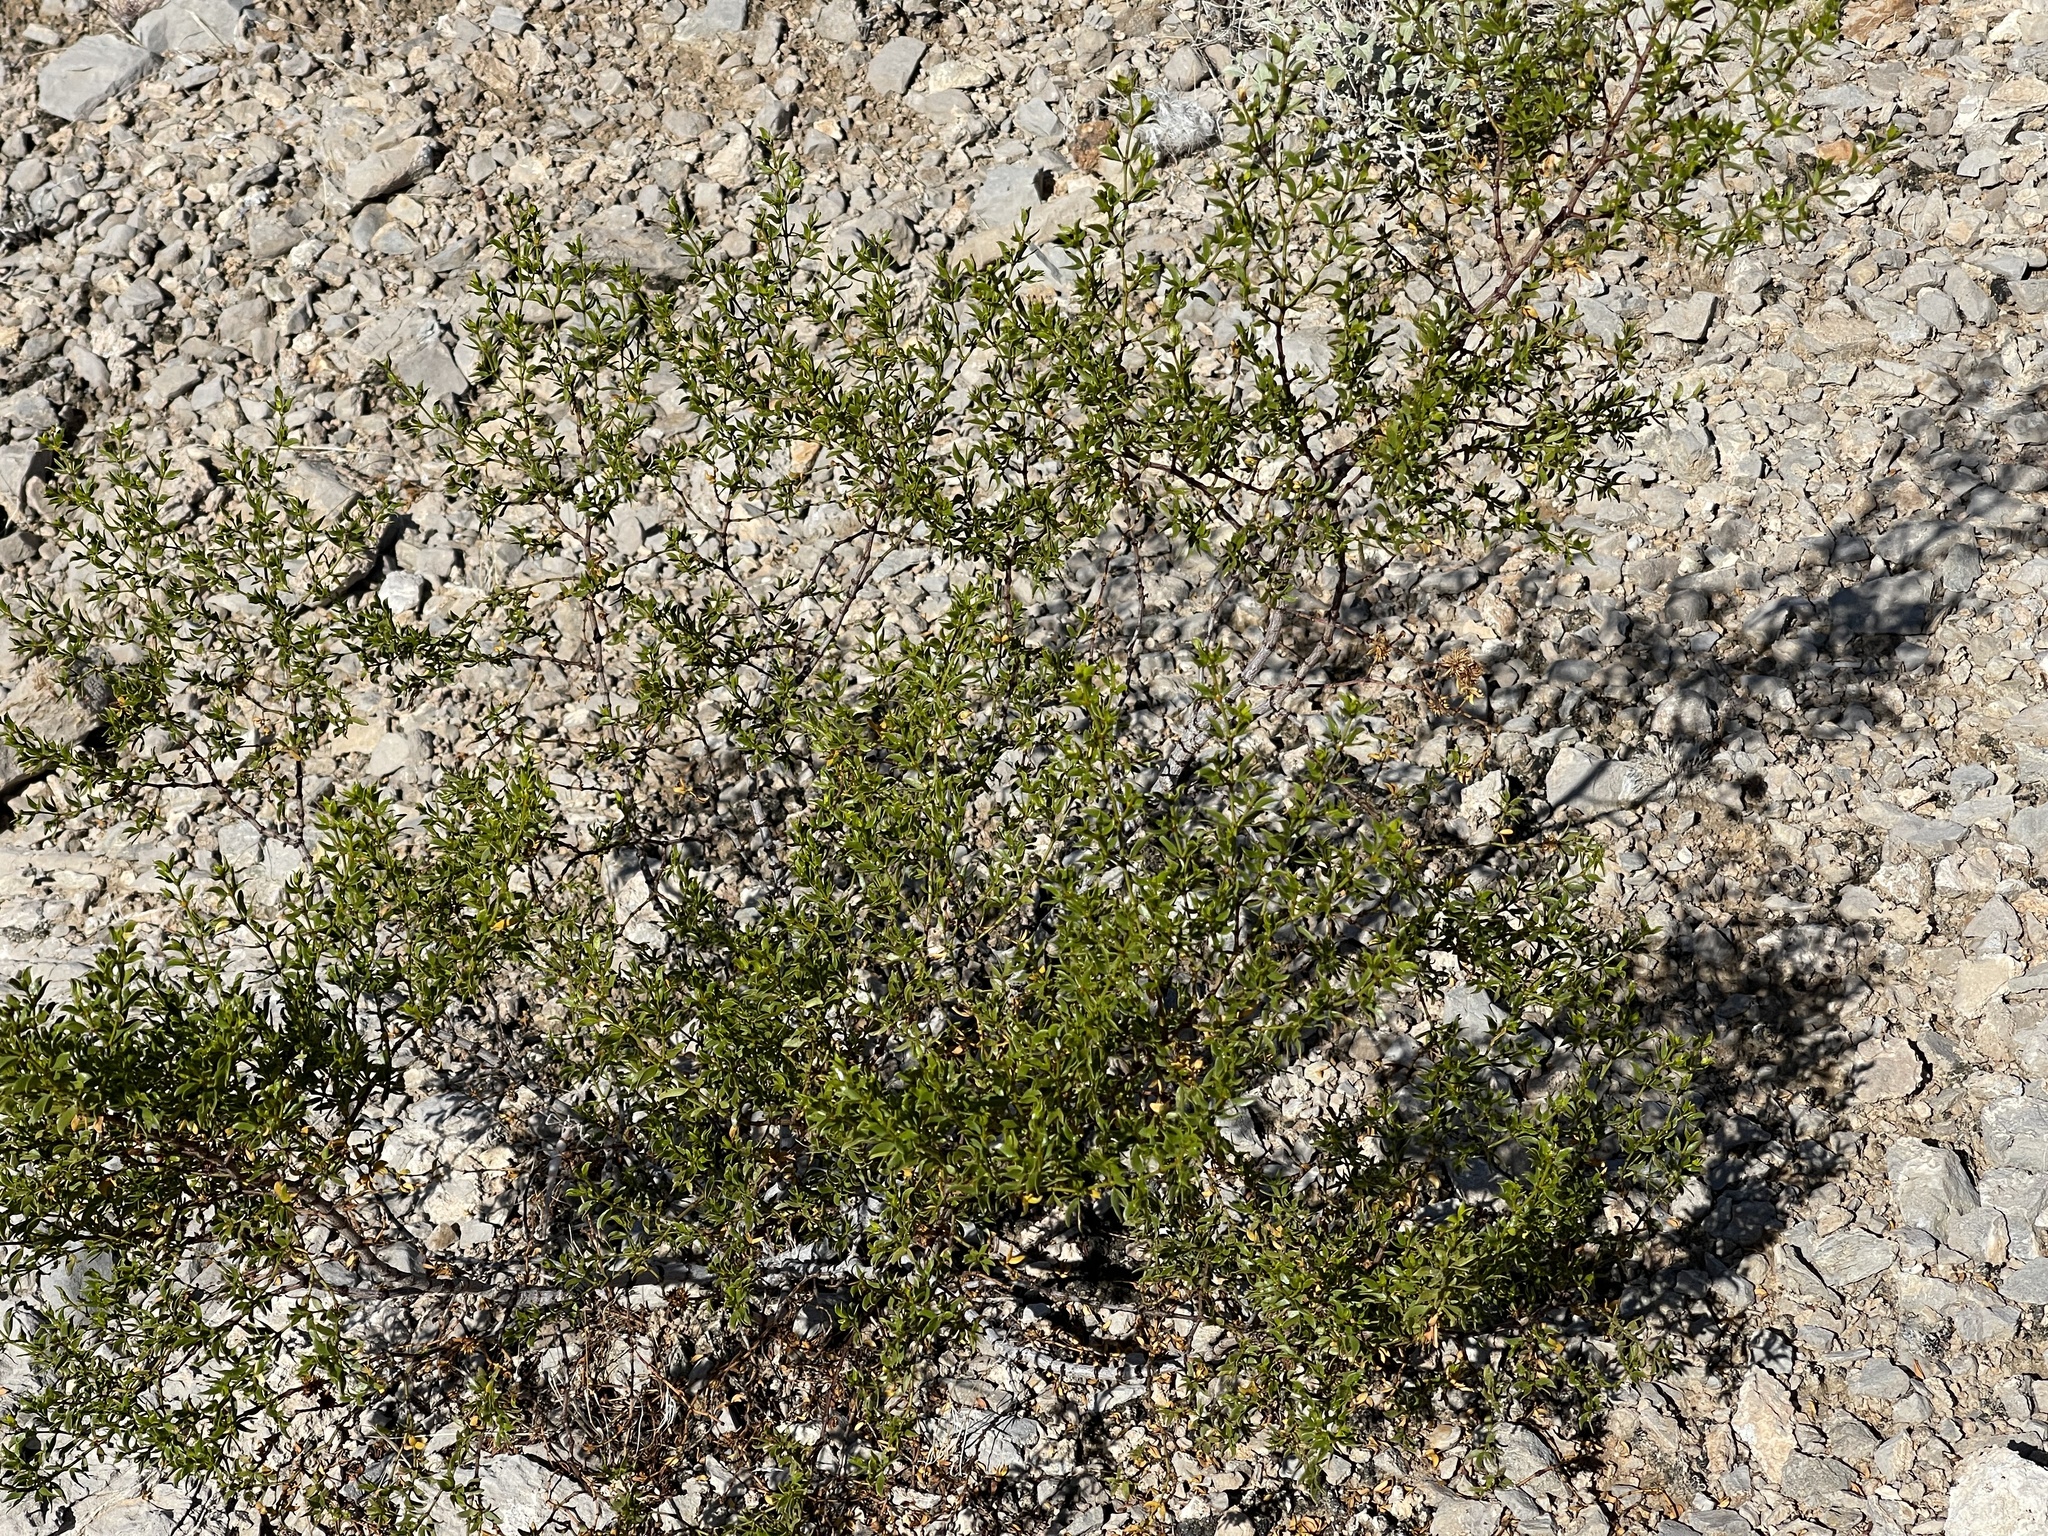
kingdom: Plantae
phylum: Tracheophyta
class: Magnoliopsida
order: Zygophyllales
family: Zygophyllaceae
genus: Larrea
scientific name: Larrea tridentata
